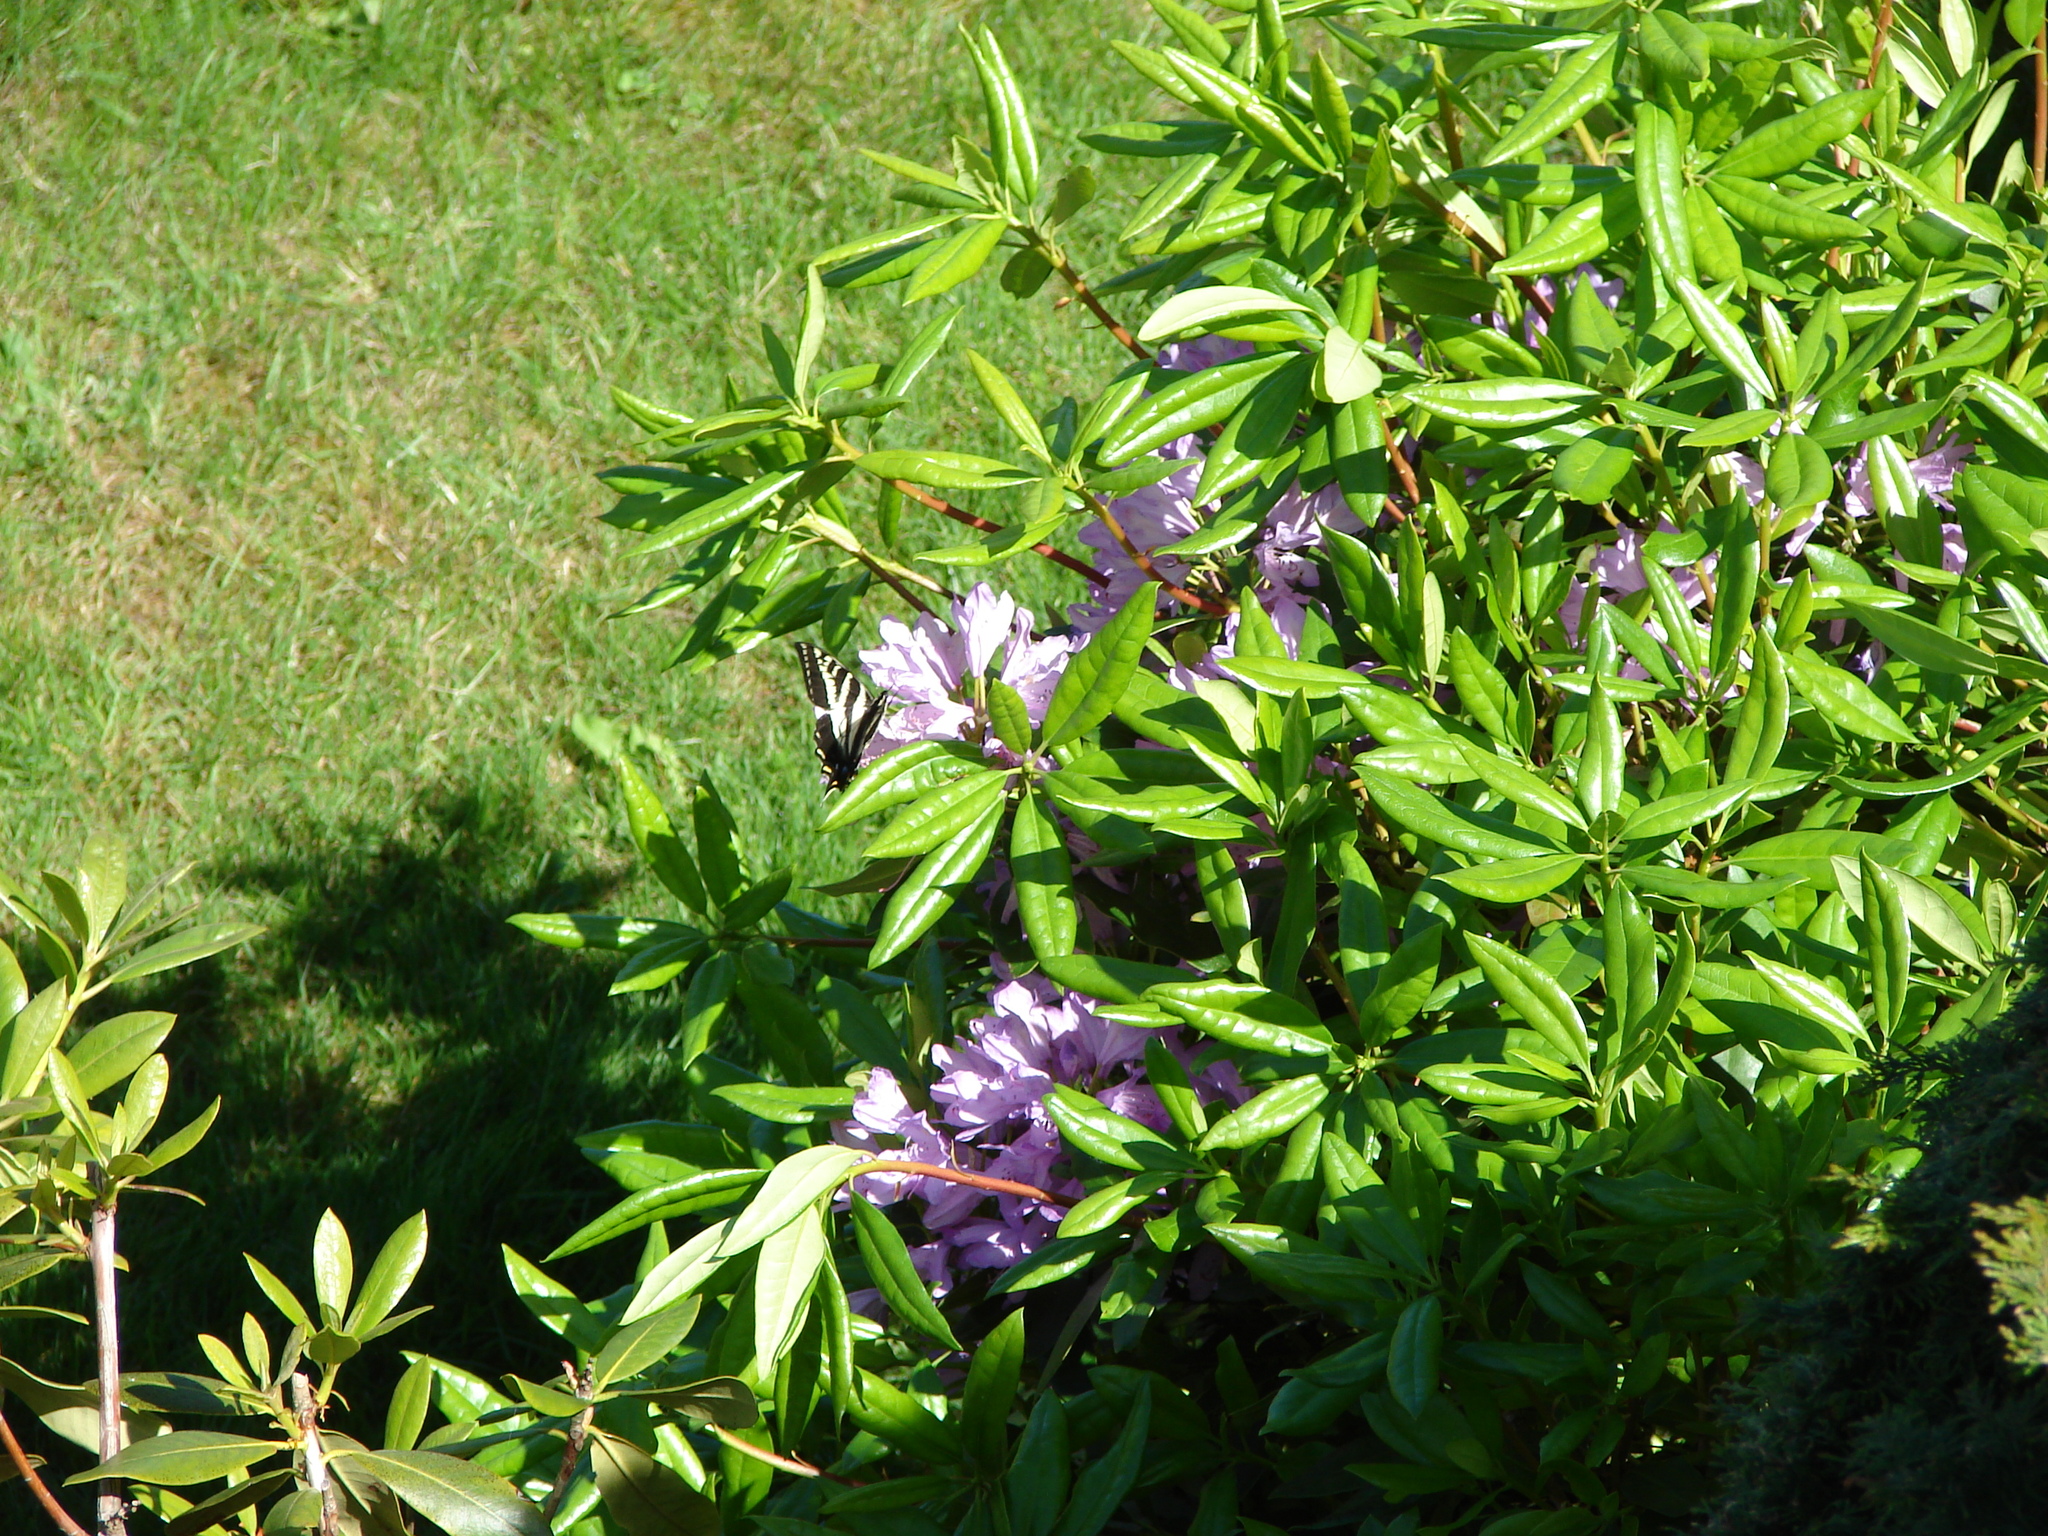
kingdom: Animalia
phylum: Arthropoda
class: Insecta
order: Lepidoptera
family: Papilionidae
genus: Papilio
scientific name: Papilio eurymedon
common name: Pale tiger swallowtail
